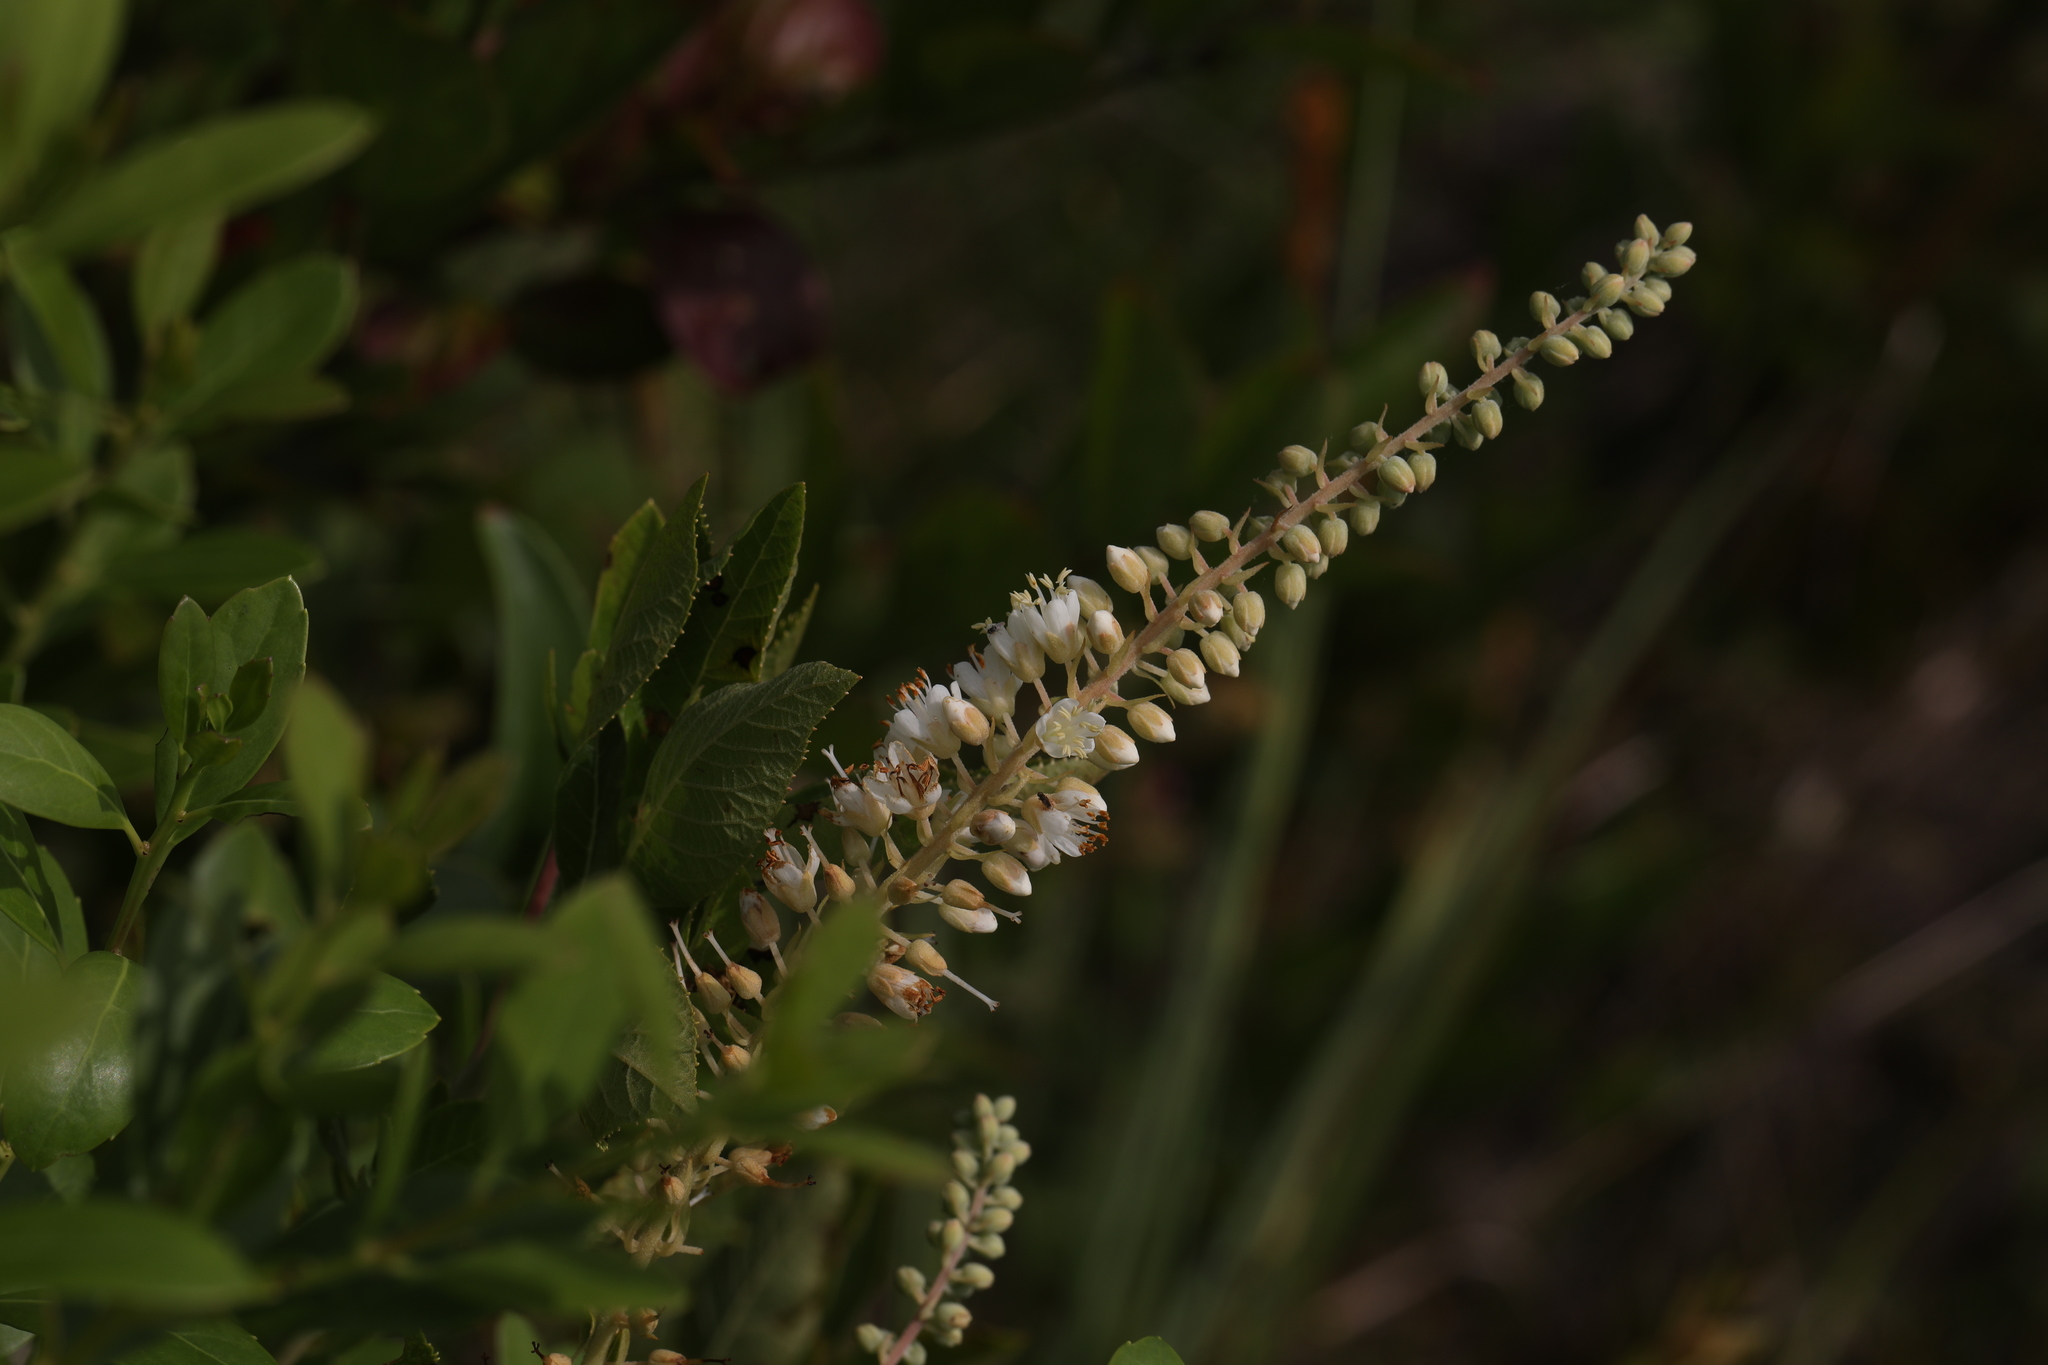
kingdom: Plantae
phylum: Tracheophyta
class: Magnoliopsida
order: Ericales
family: Clethraceae
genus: Clethra
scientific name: Clethra alnifolia
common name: Sweet pepperbush
